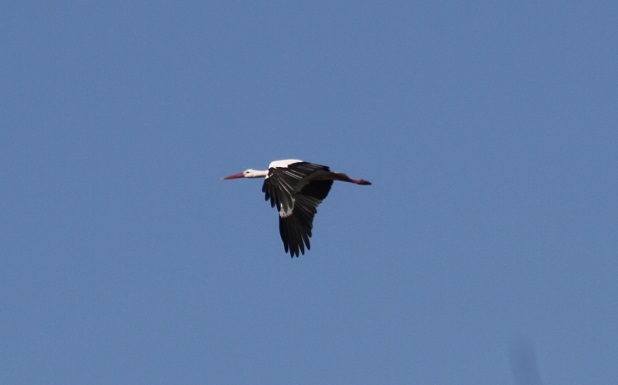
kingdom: Animalia
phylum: Chordata
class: Aves
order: Ciconiiformes
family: Ciconiidae
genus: Ciconia
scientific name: Ciconia ciconia
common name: White stork
